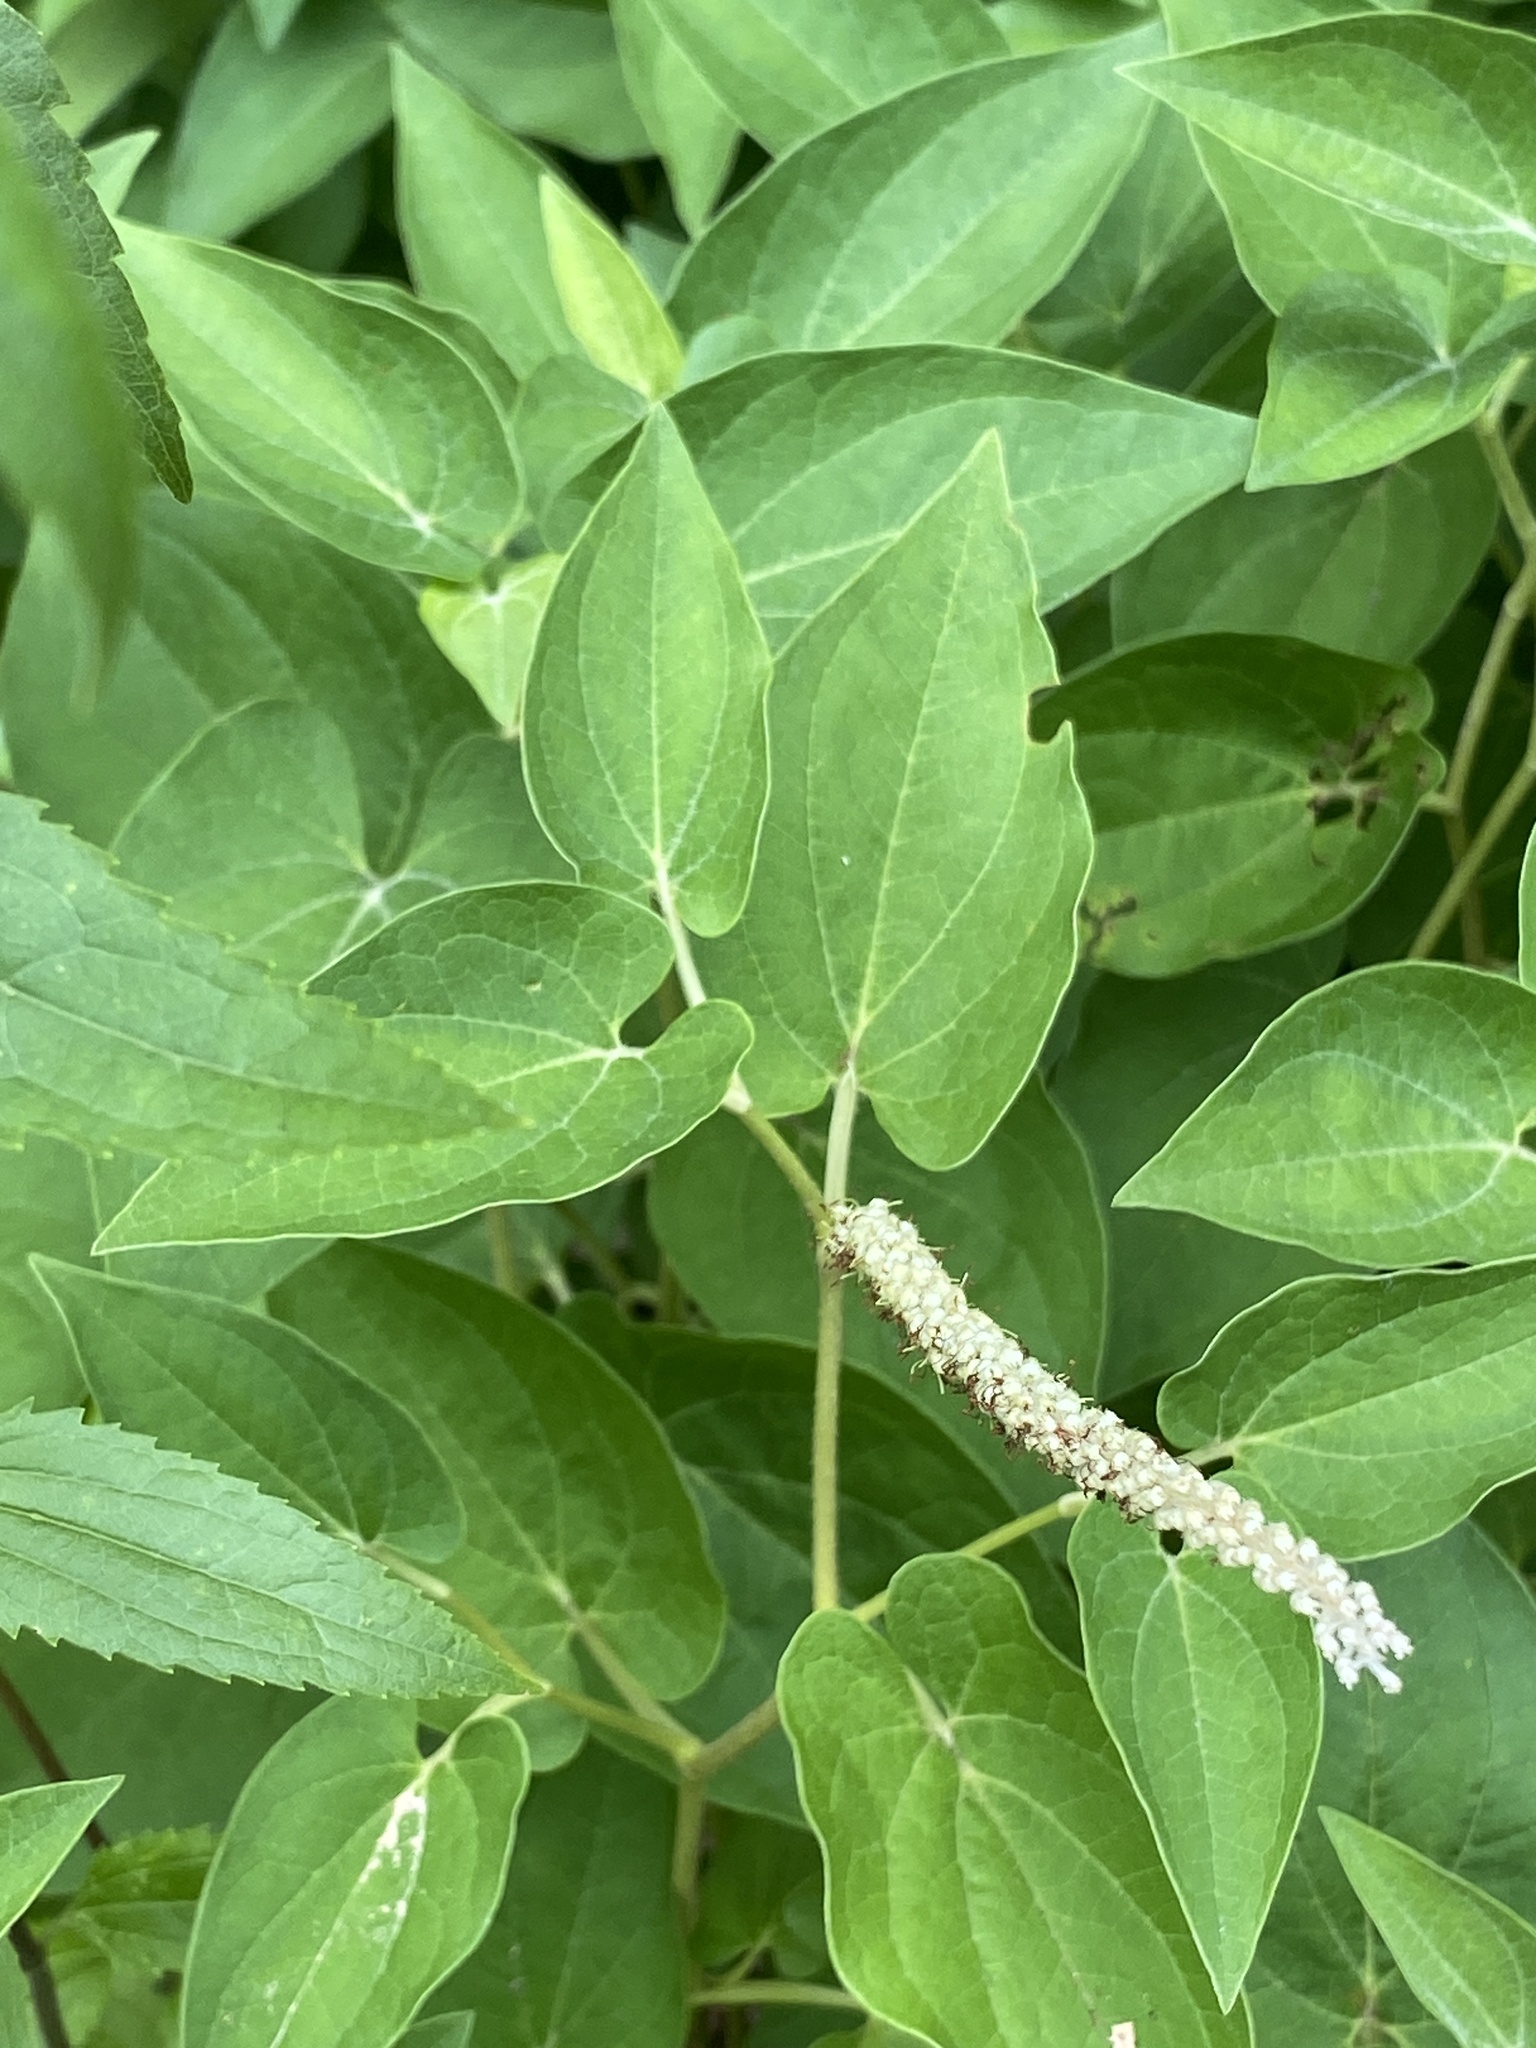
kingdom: Plantae
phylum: Tracheophyta
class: Magnoliopsida
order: Piperales
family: Saururaceae
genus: Saururus
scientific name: Saururus cernuus
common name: Lizard's-tail
